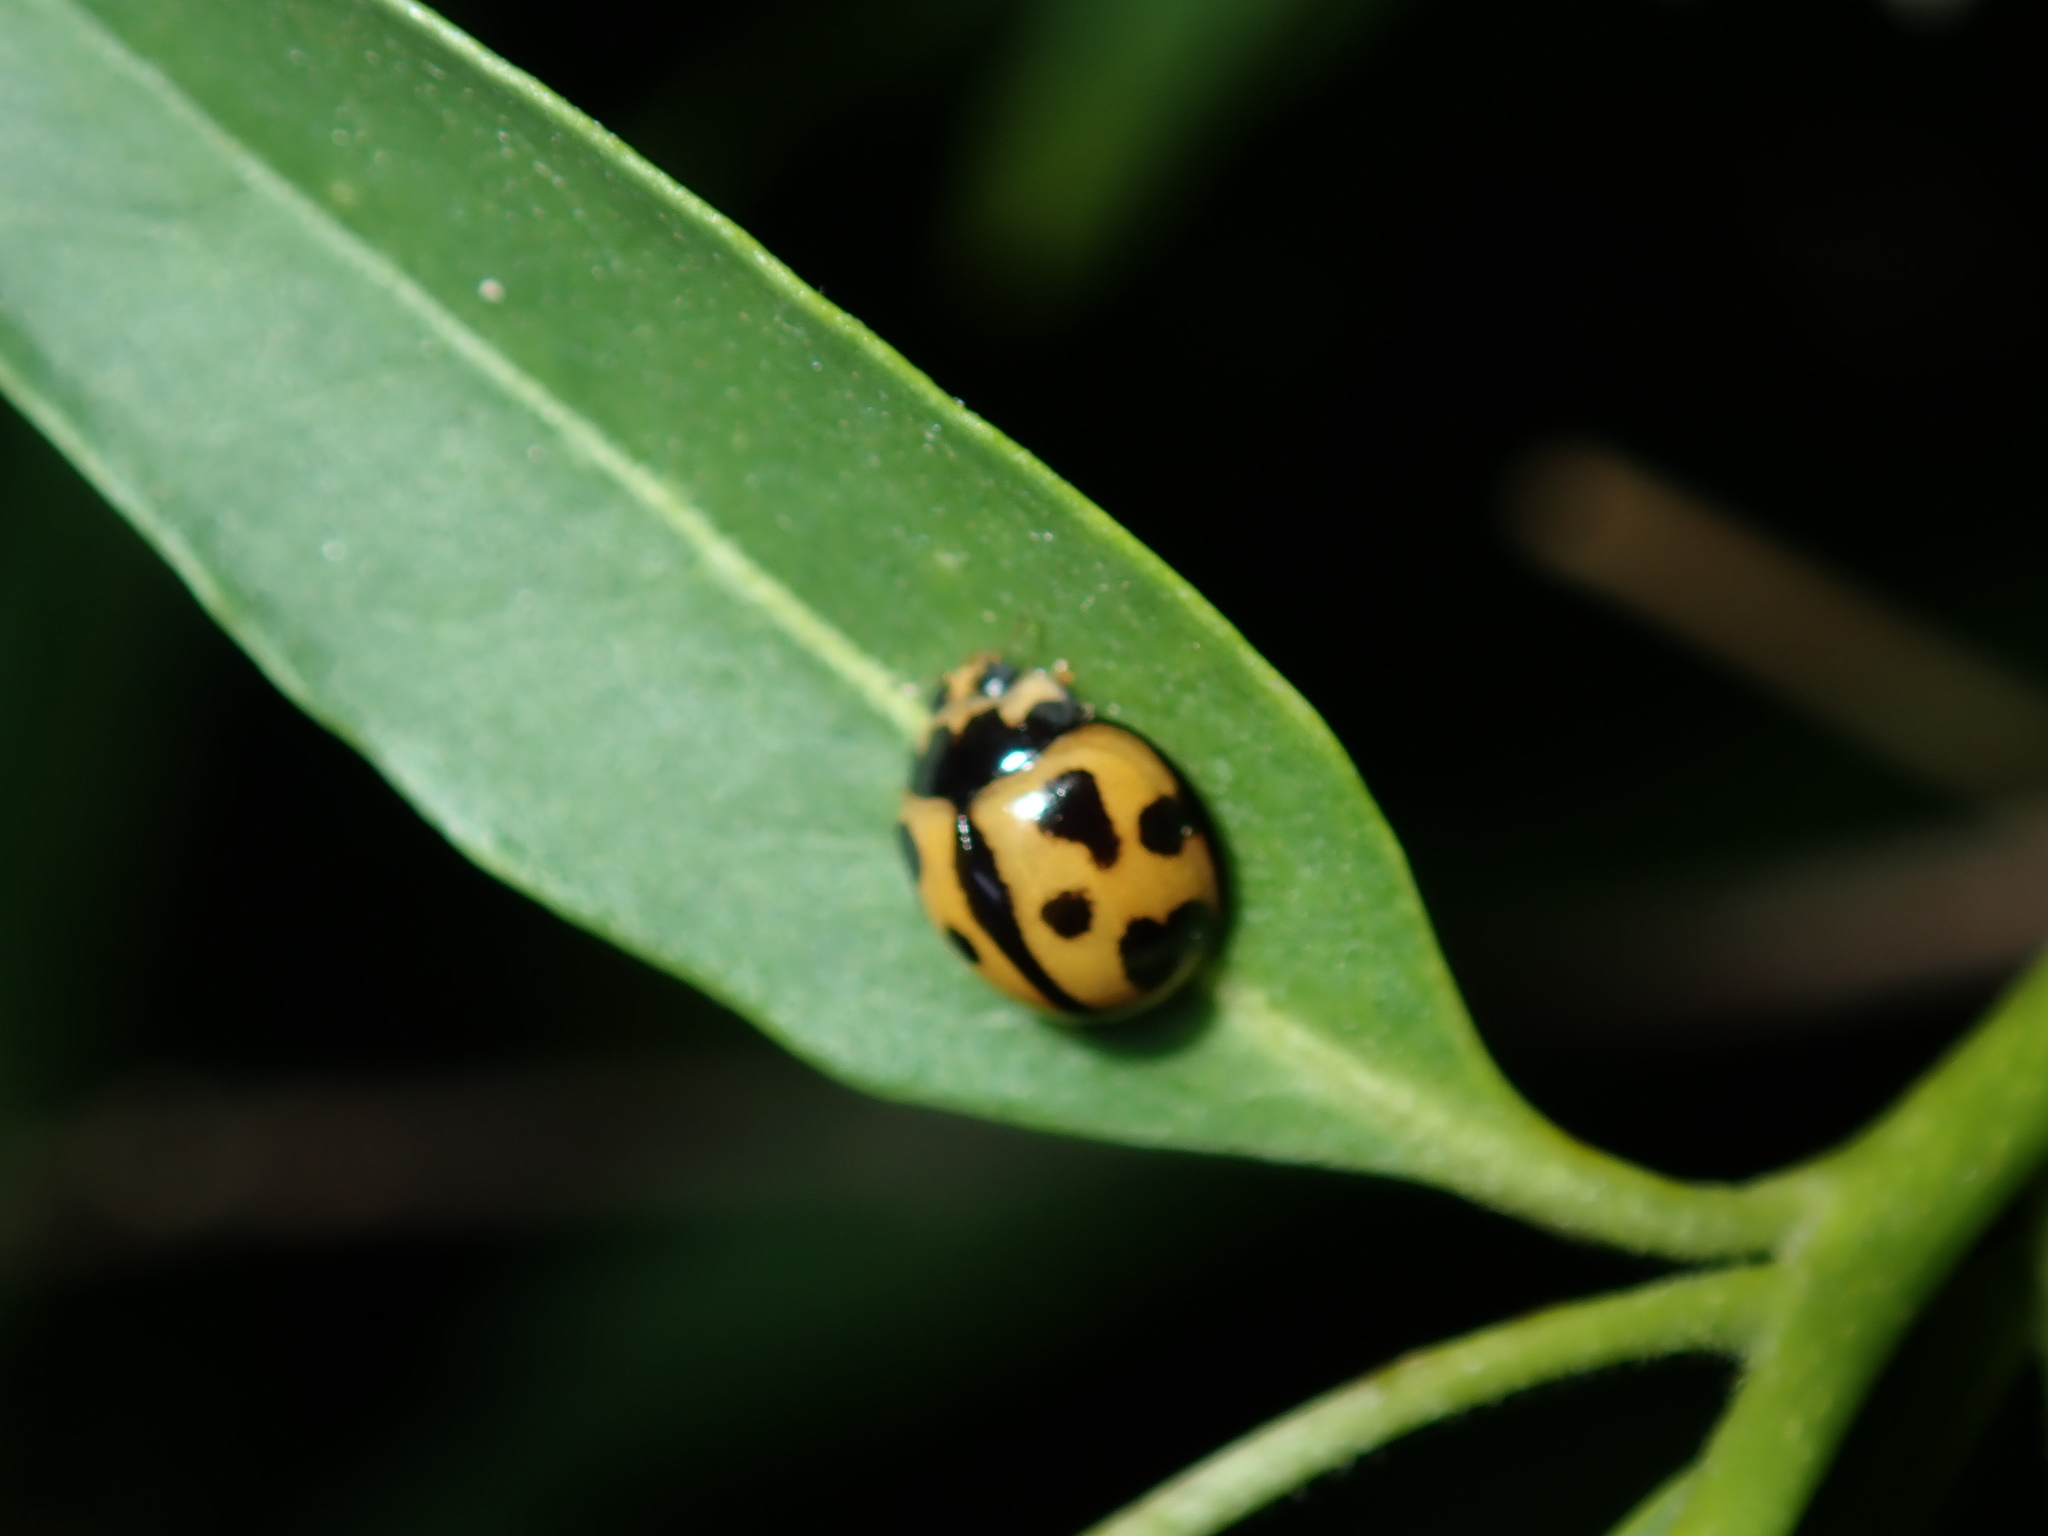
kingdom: Animalia
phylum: Arthropoda
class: Insecta
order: Coleoptera
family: Coccinellidae
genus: Coelophora
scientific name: Coelophora inaequalis
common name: Common australian lady beetle
